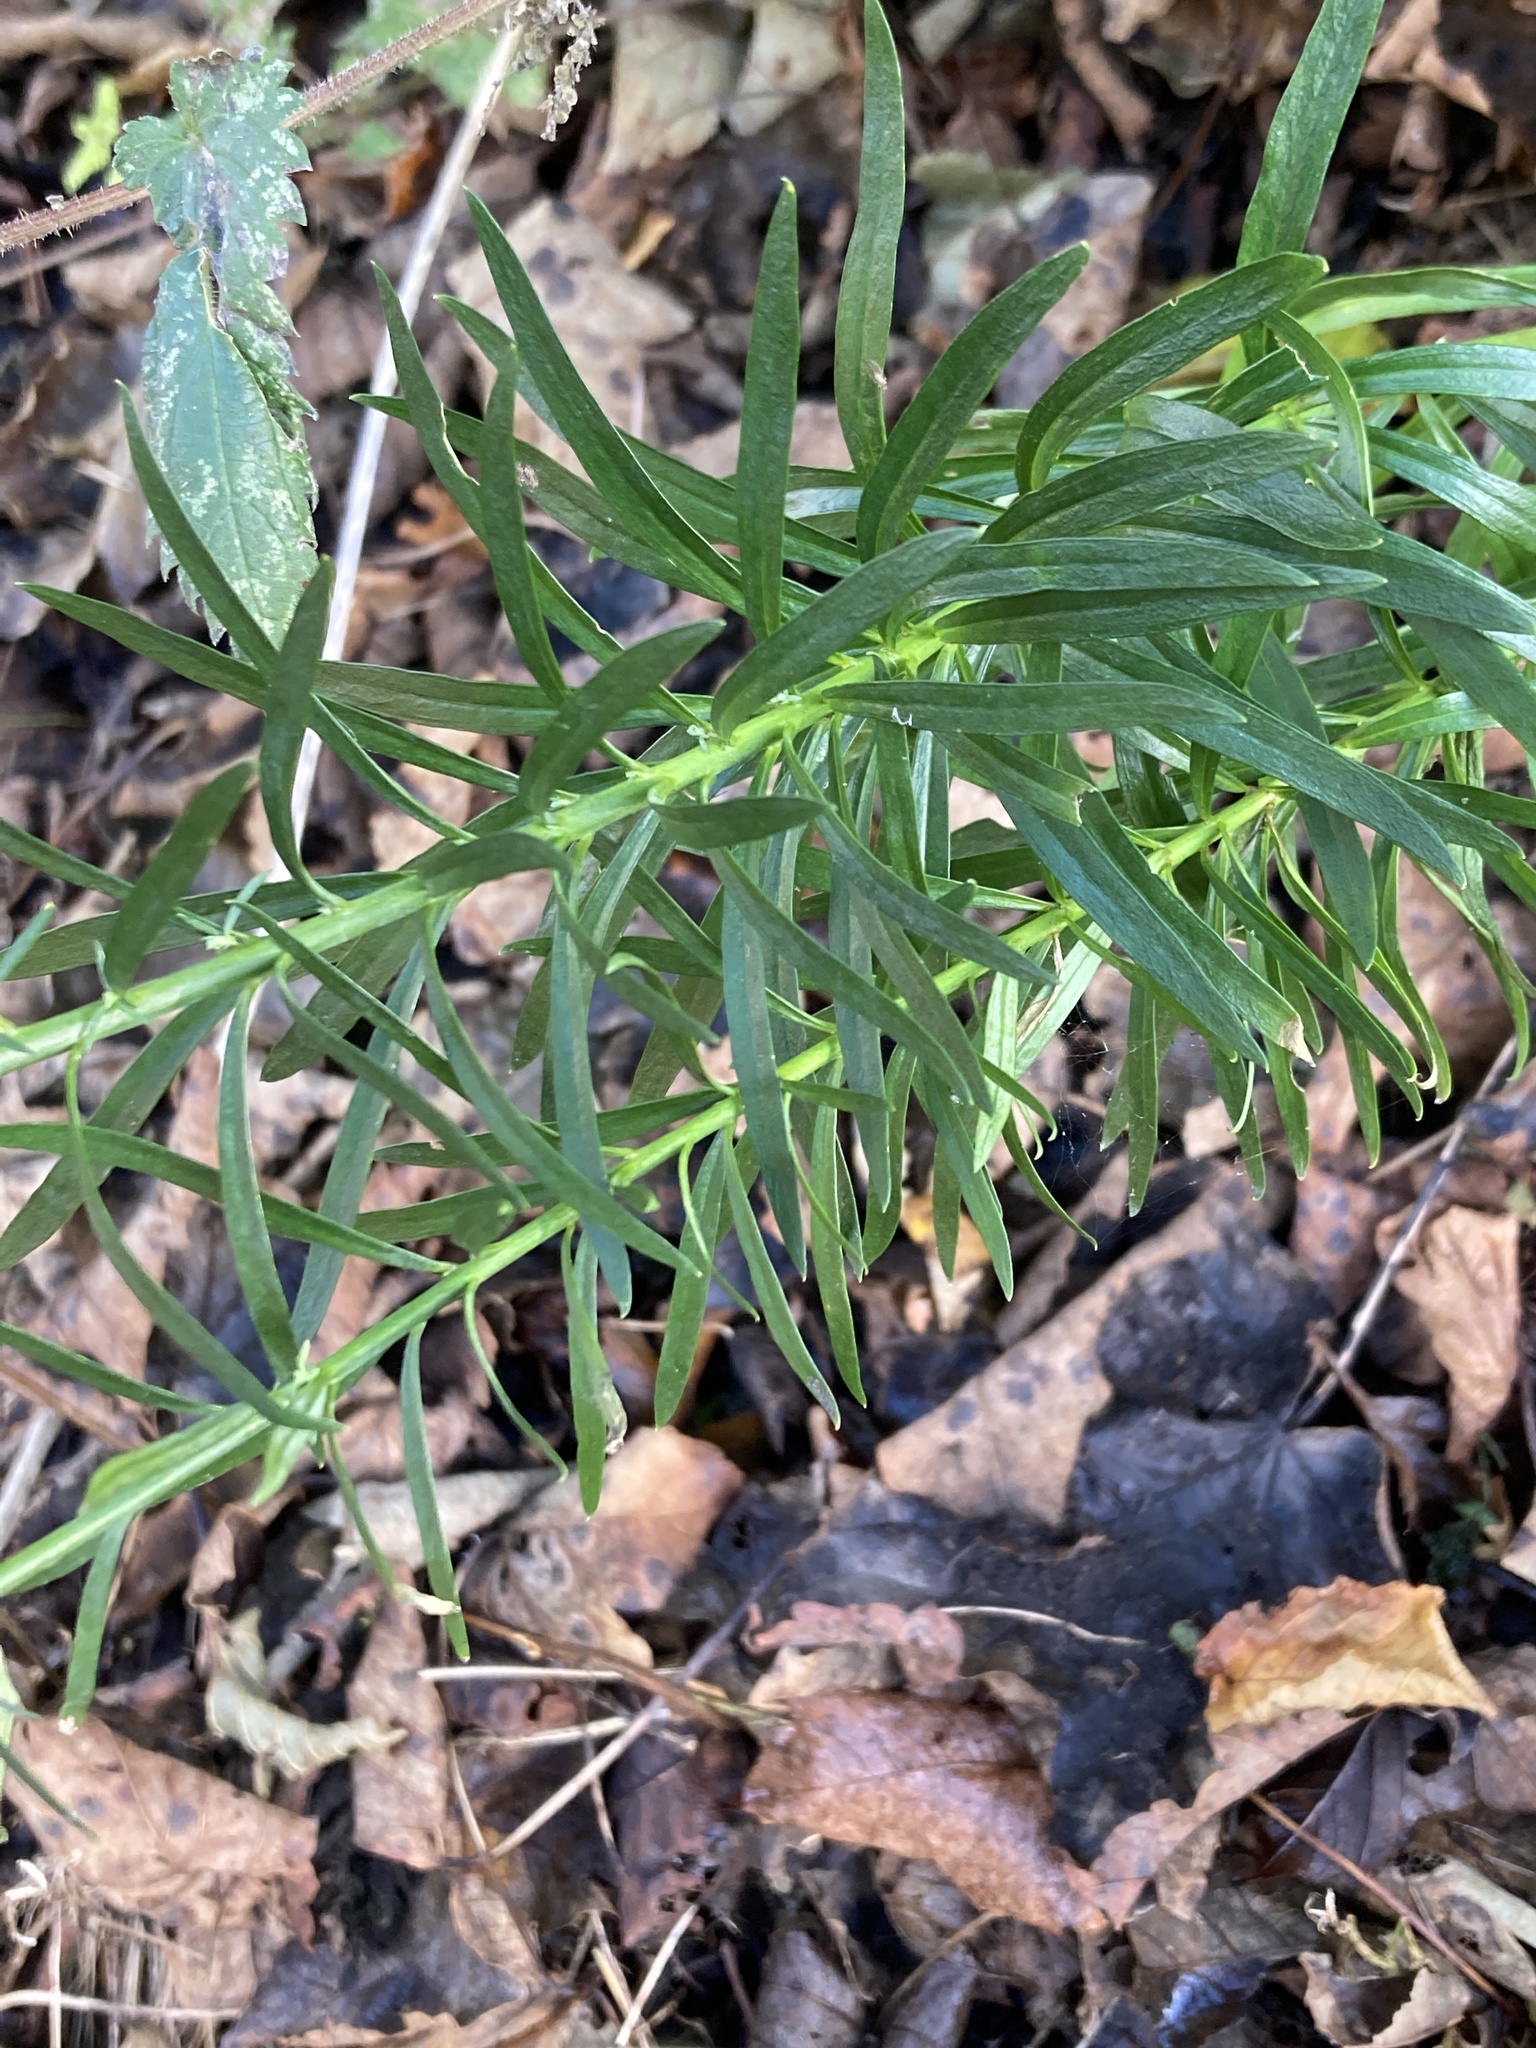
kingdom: Plantae
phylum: Tracheophyta
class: Magnoliopsida
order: Lamiales
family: Plantaginaceae
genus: Linaria
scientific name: Linaria purpurea
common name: Purple toadflax
